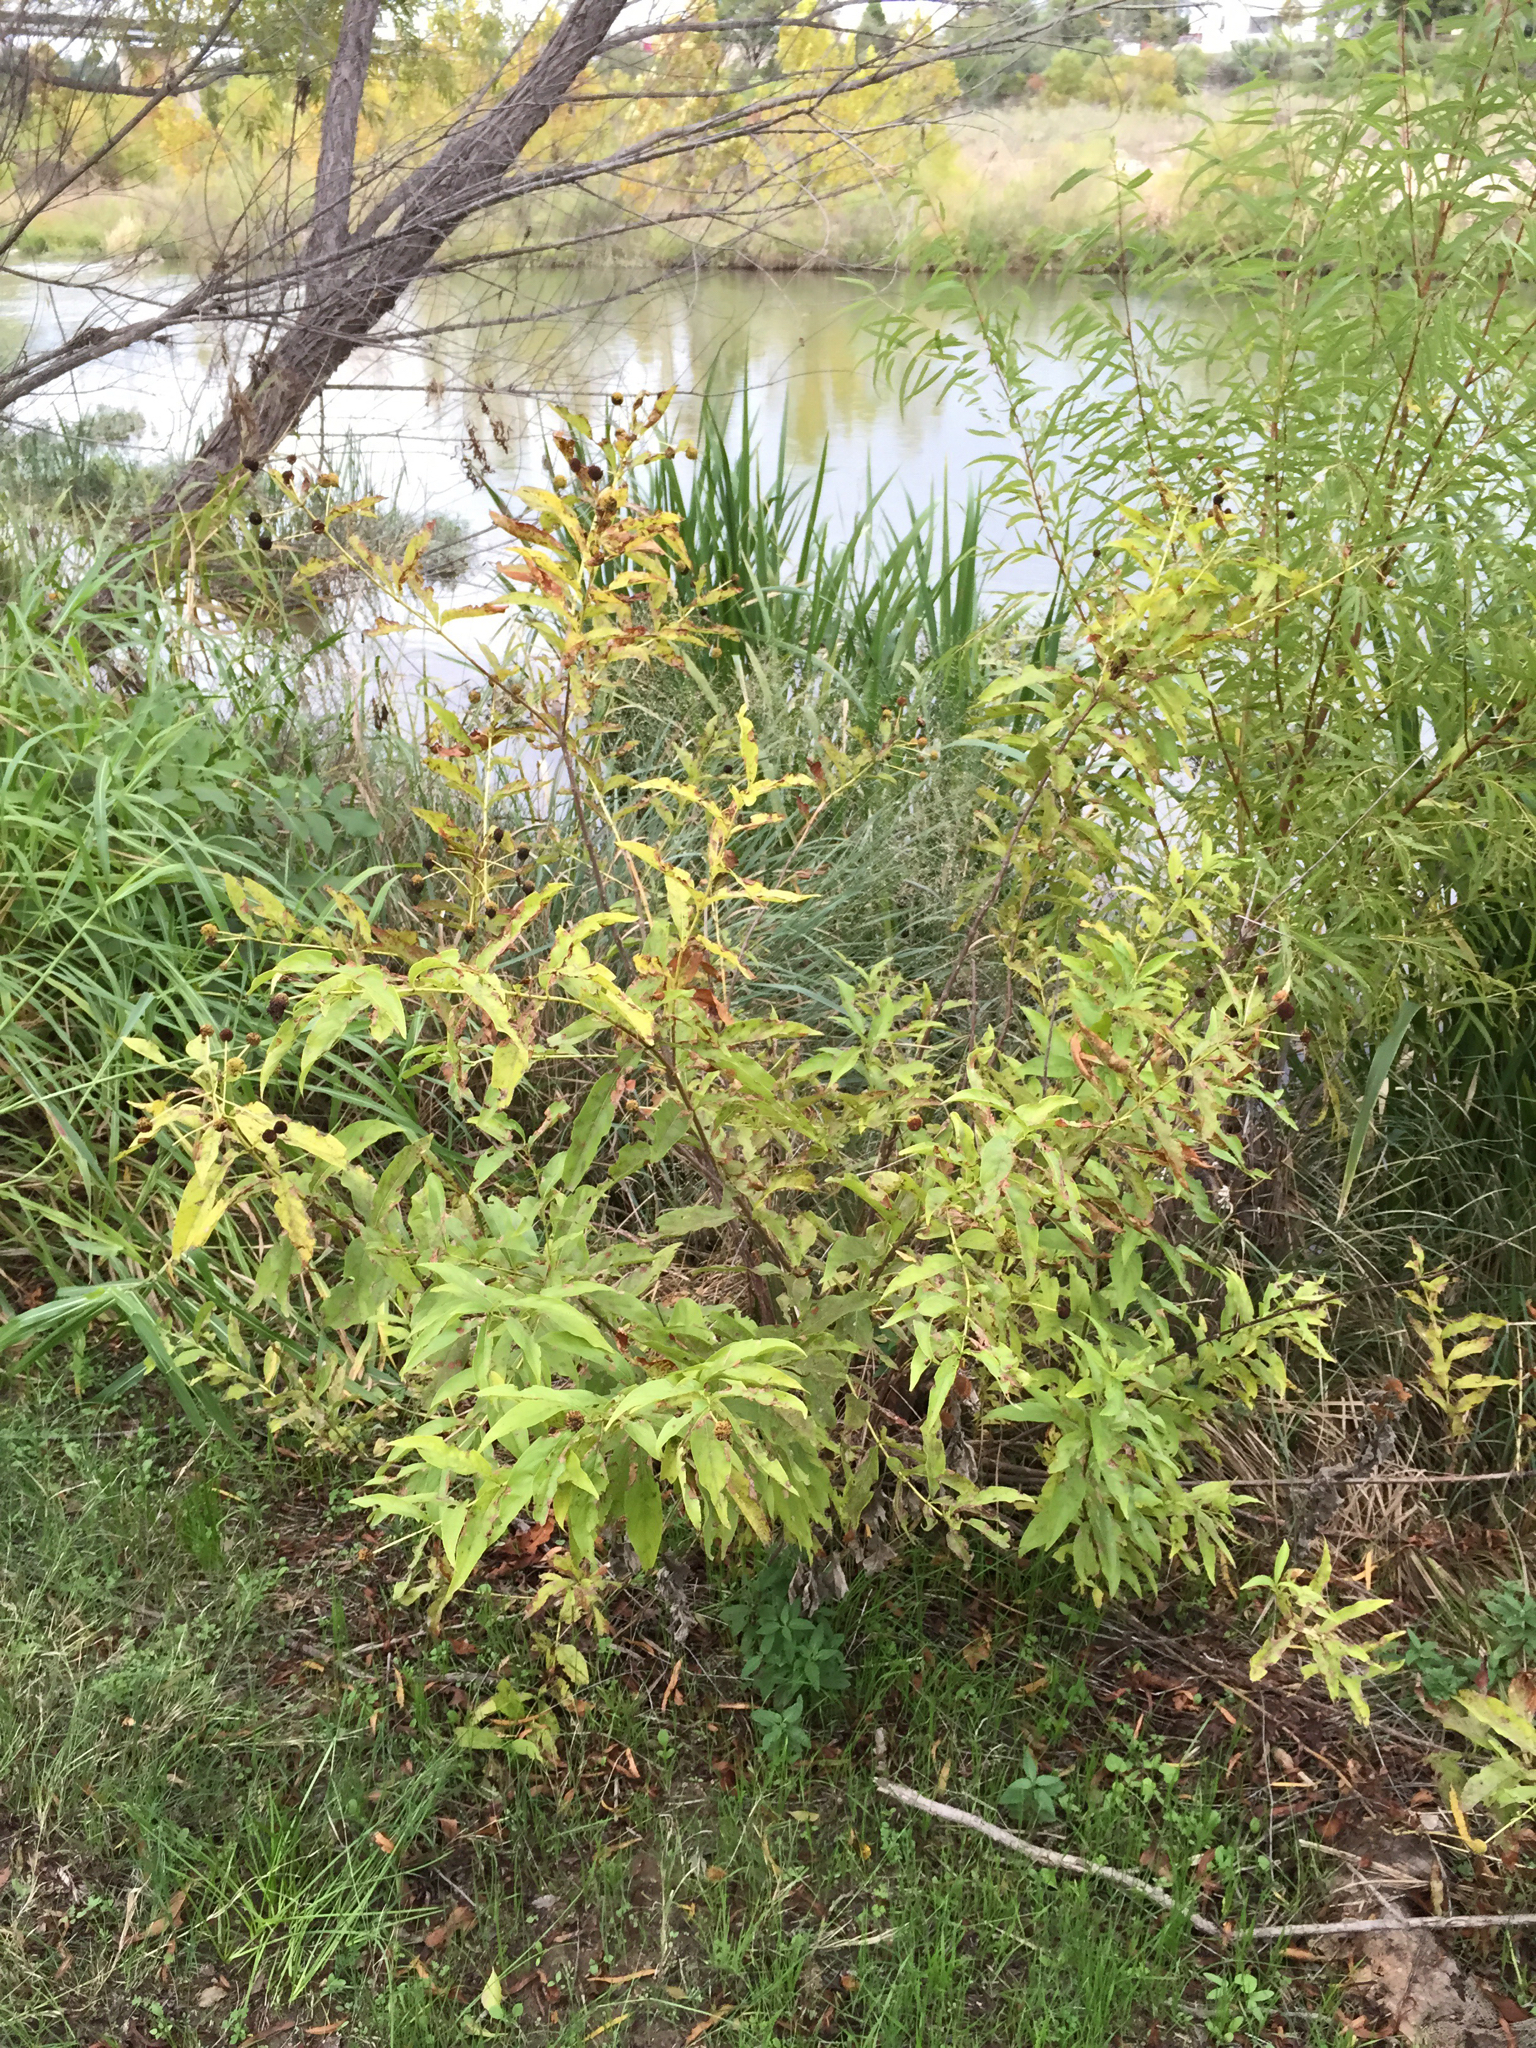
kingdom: Plantae
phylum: Tracheophyta
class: Magnoliopsida
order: Gentianales
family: Rubiaceae
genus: Cephalanthus
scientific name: Cephalanthus occidentalis
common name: Button-willow
